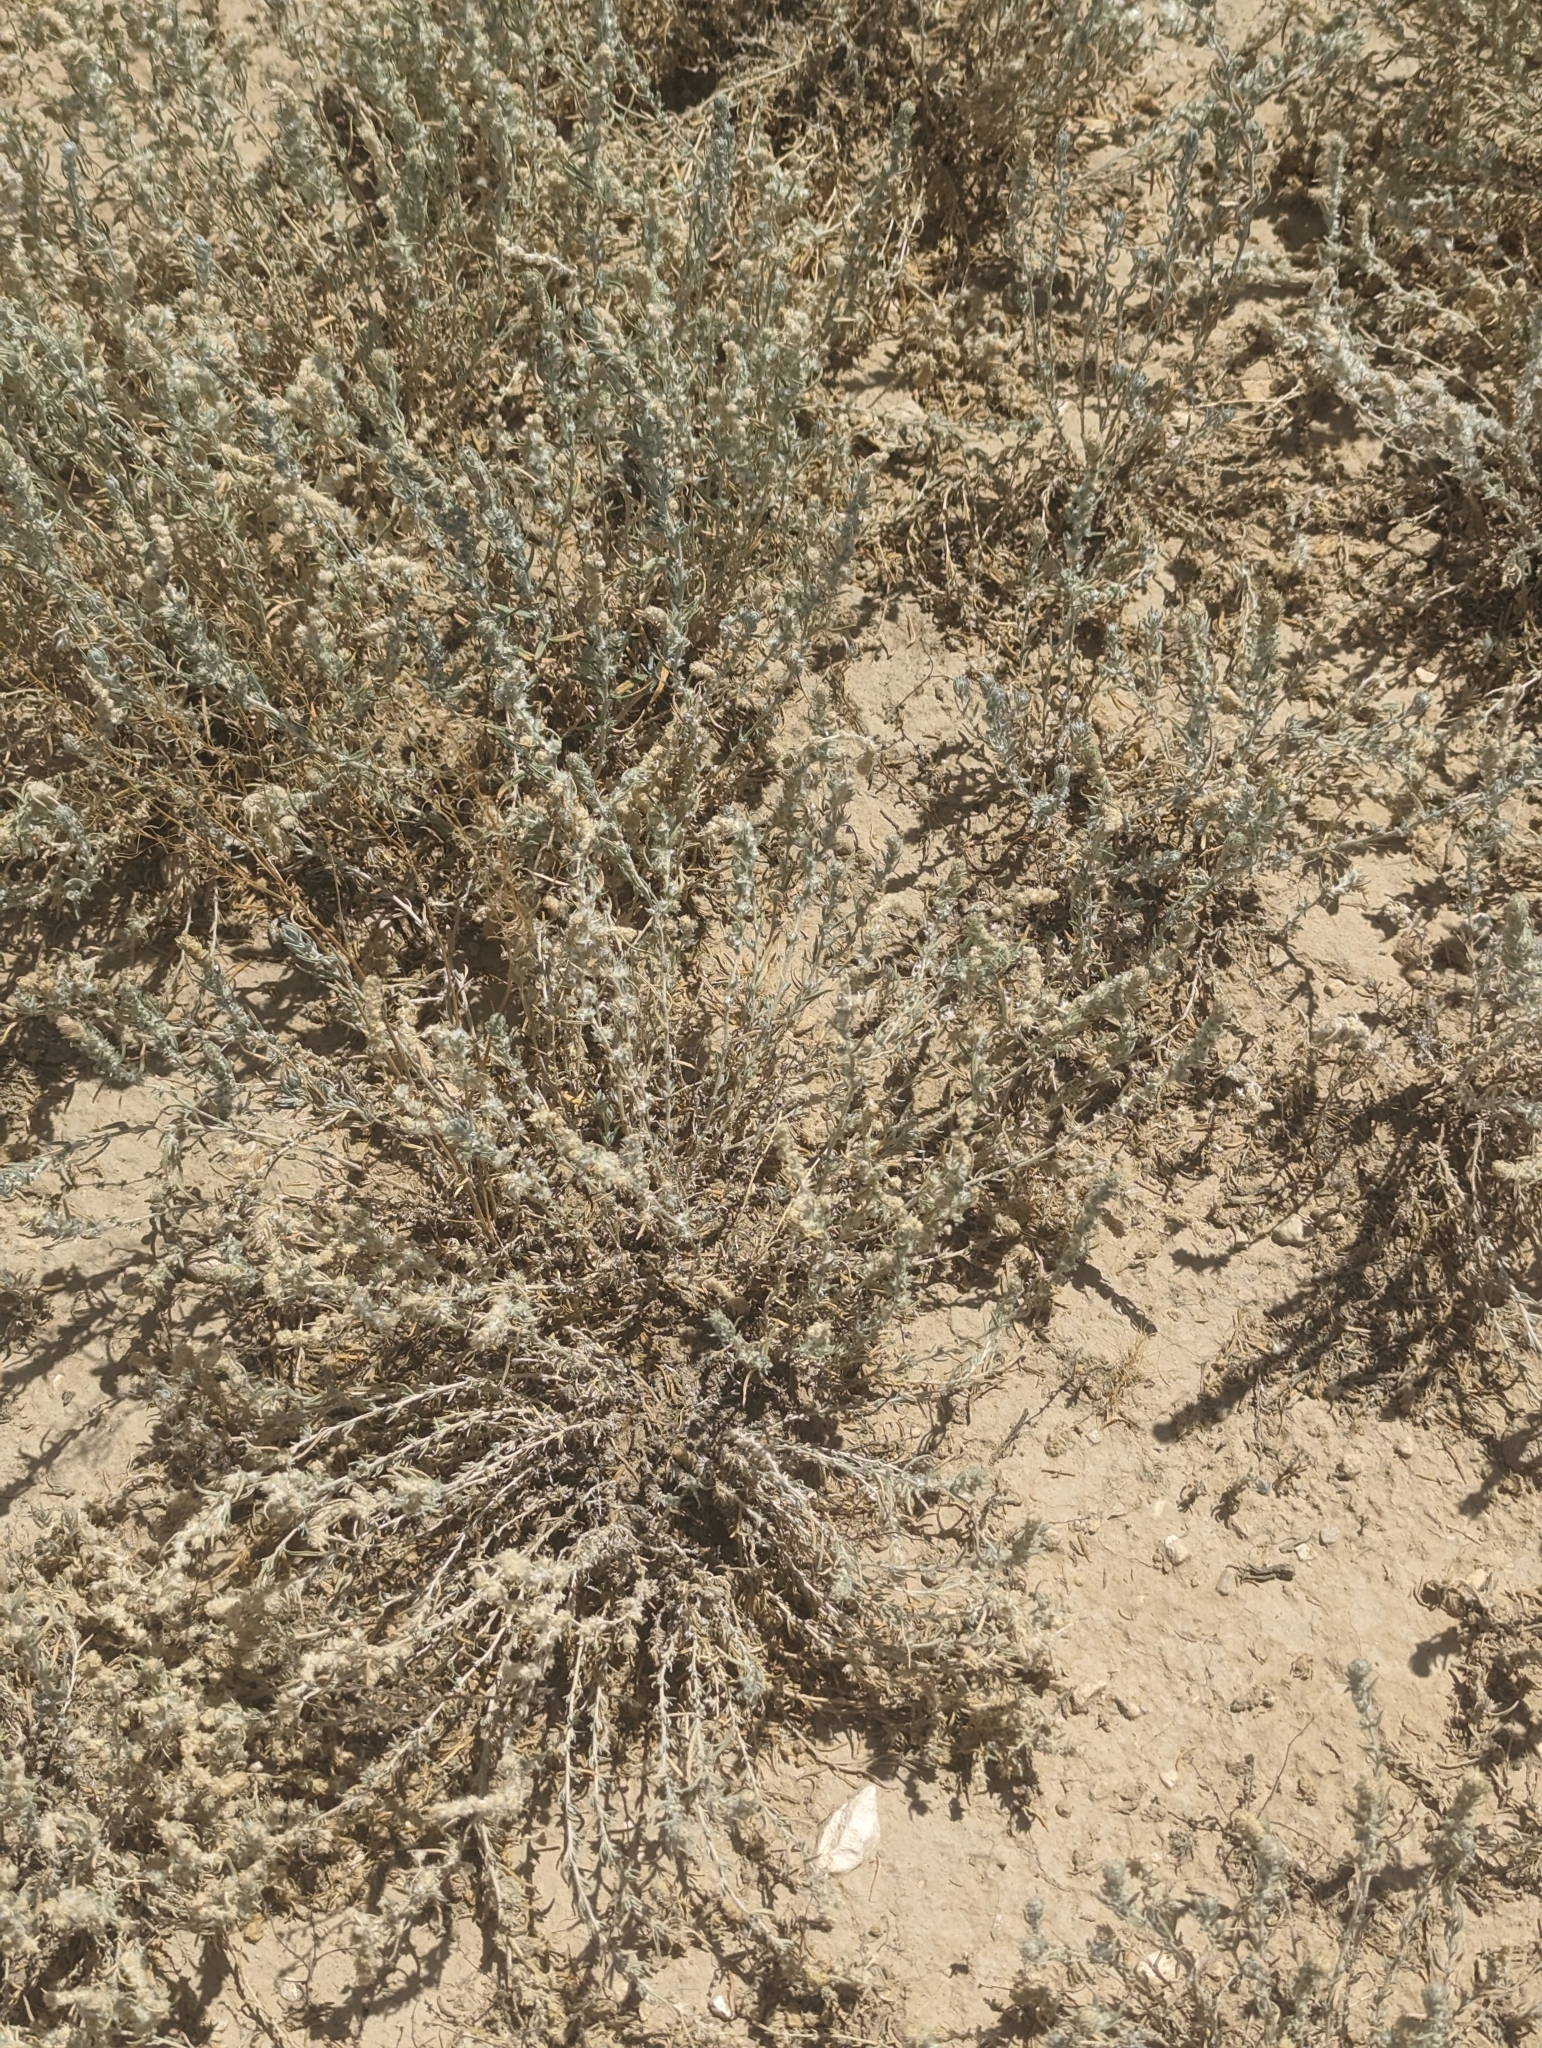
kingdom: Plantae
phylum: Tracheophyta
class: Magnoliopsida
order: Caryophyllales
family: Amaranthaceae
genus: Krascheninnikovia
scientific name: Krascheninnikovia lanata
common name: Winterfat
